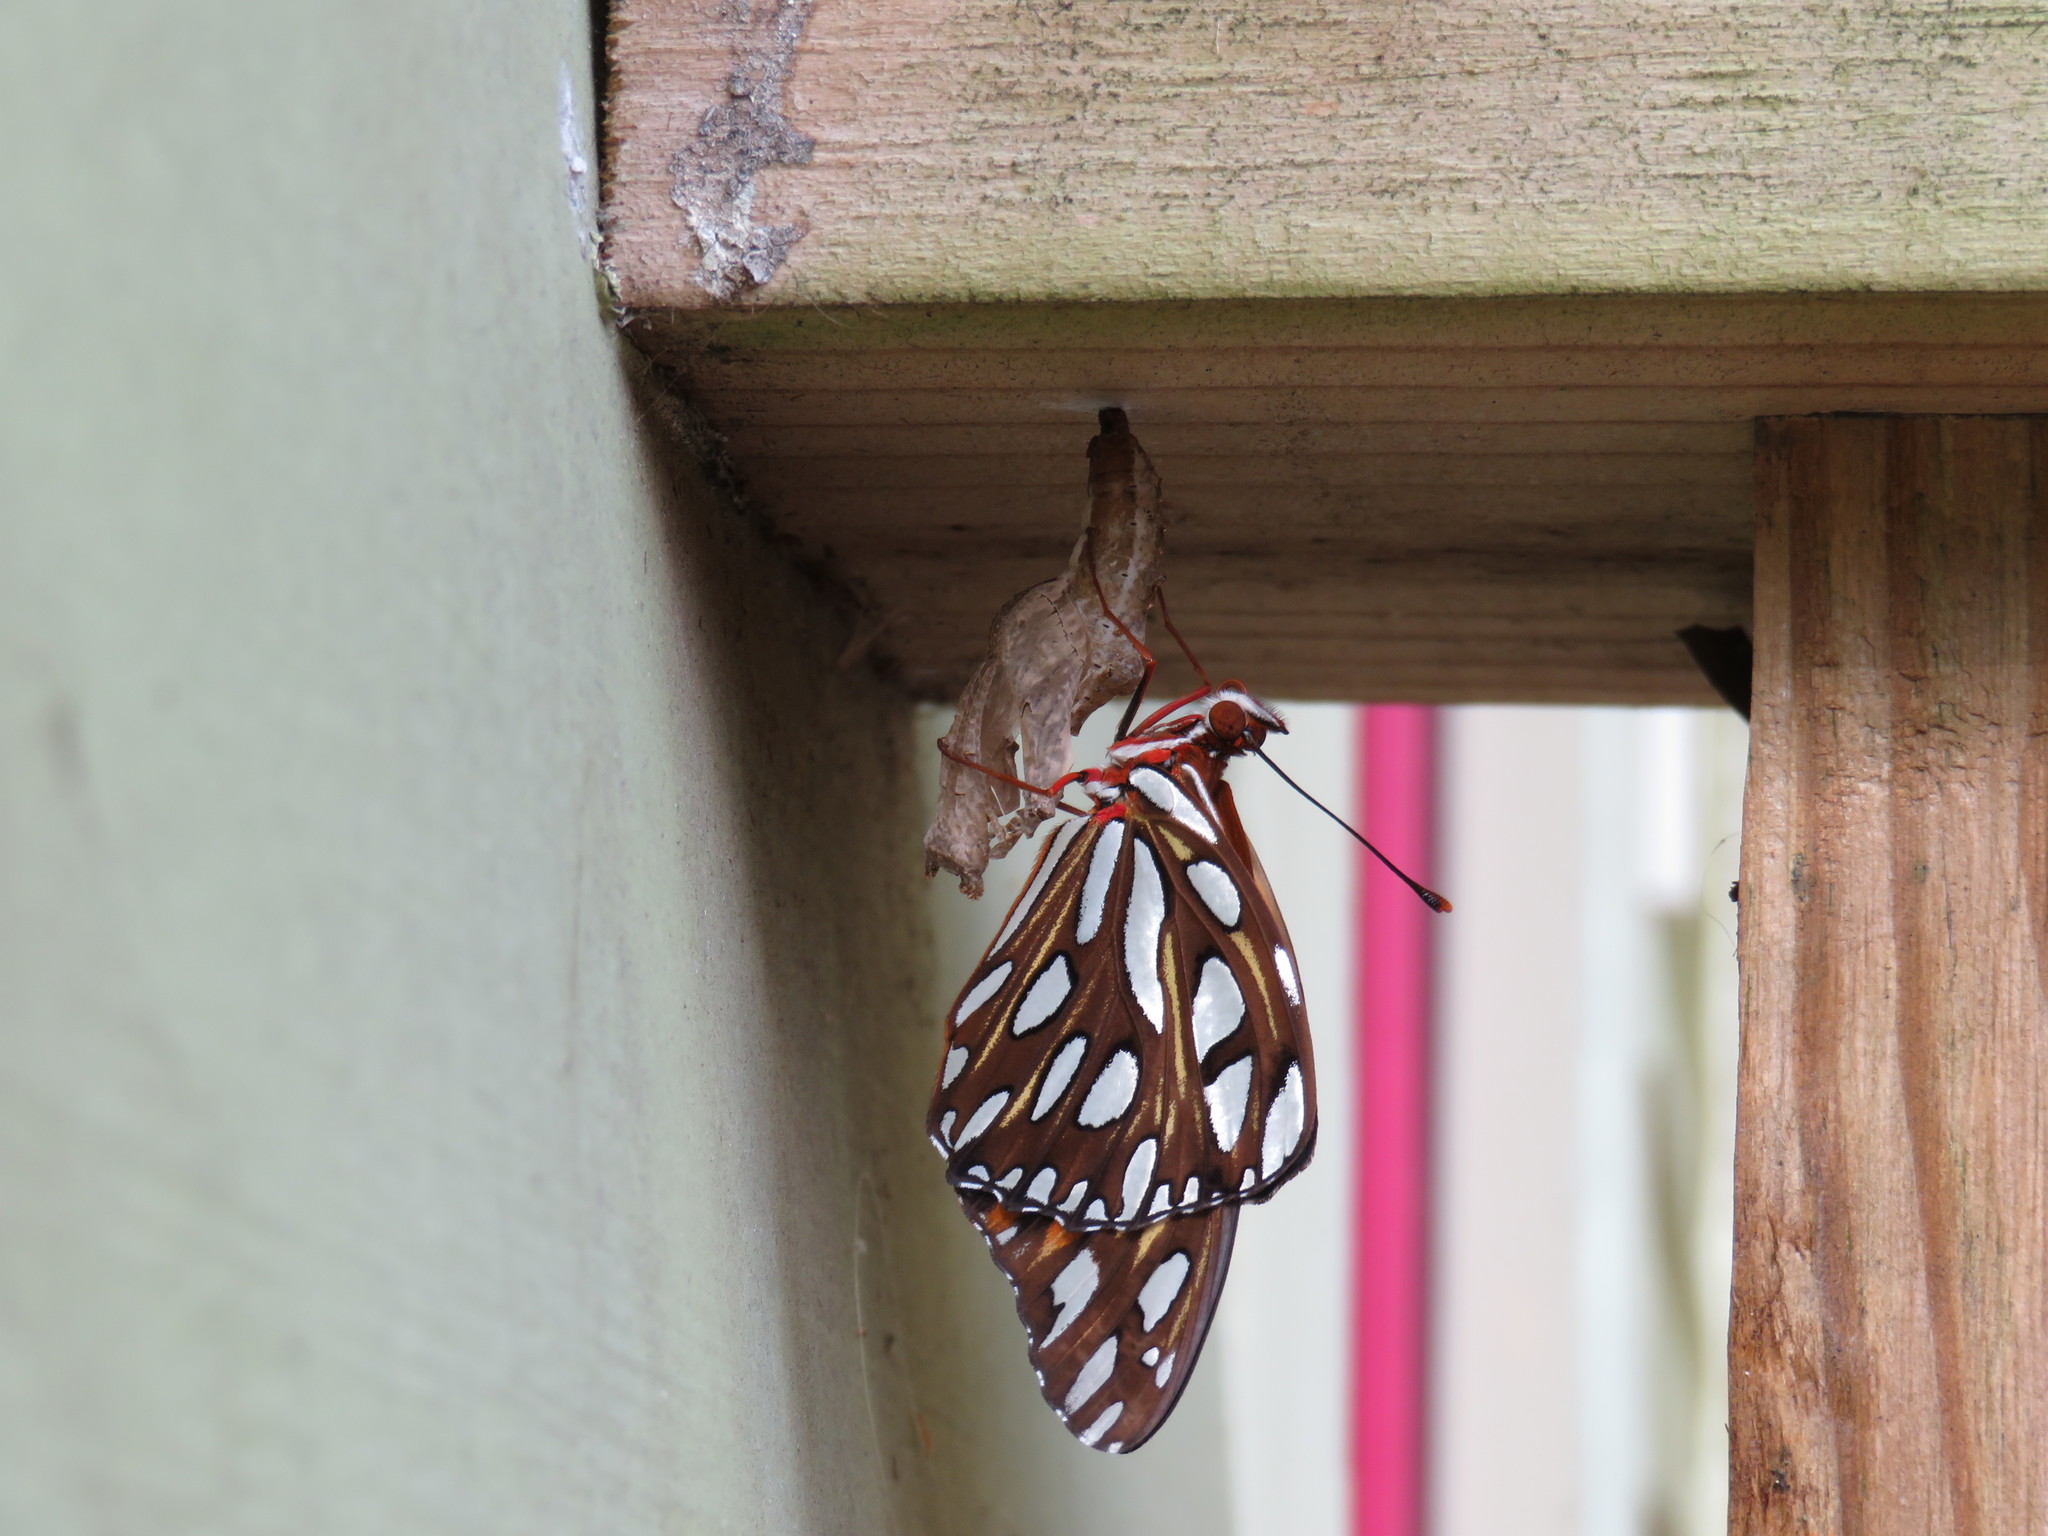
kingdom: Animalia
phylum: Arthropoda
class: Insecta
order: Lepidoptera
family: Nymphalidae
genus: Dione
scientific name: Dione vanillae
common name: Gulf fritillary
